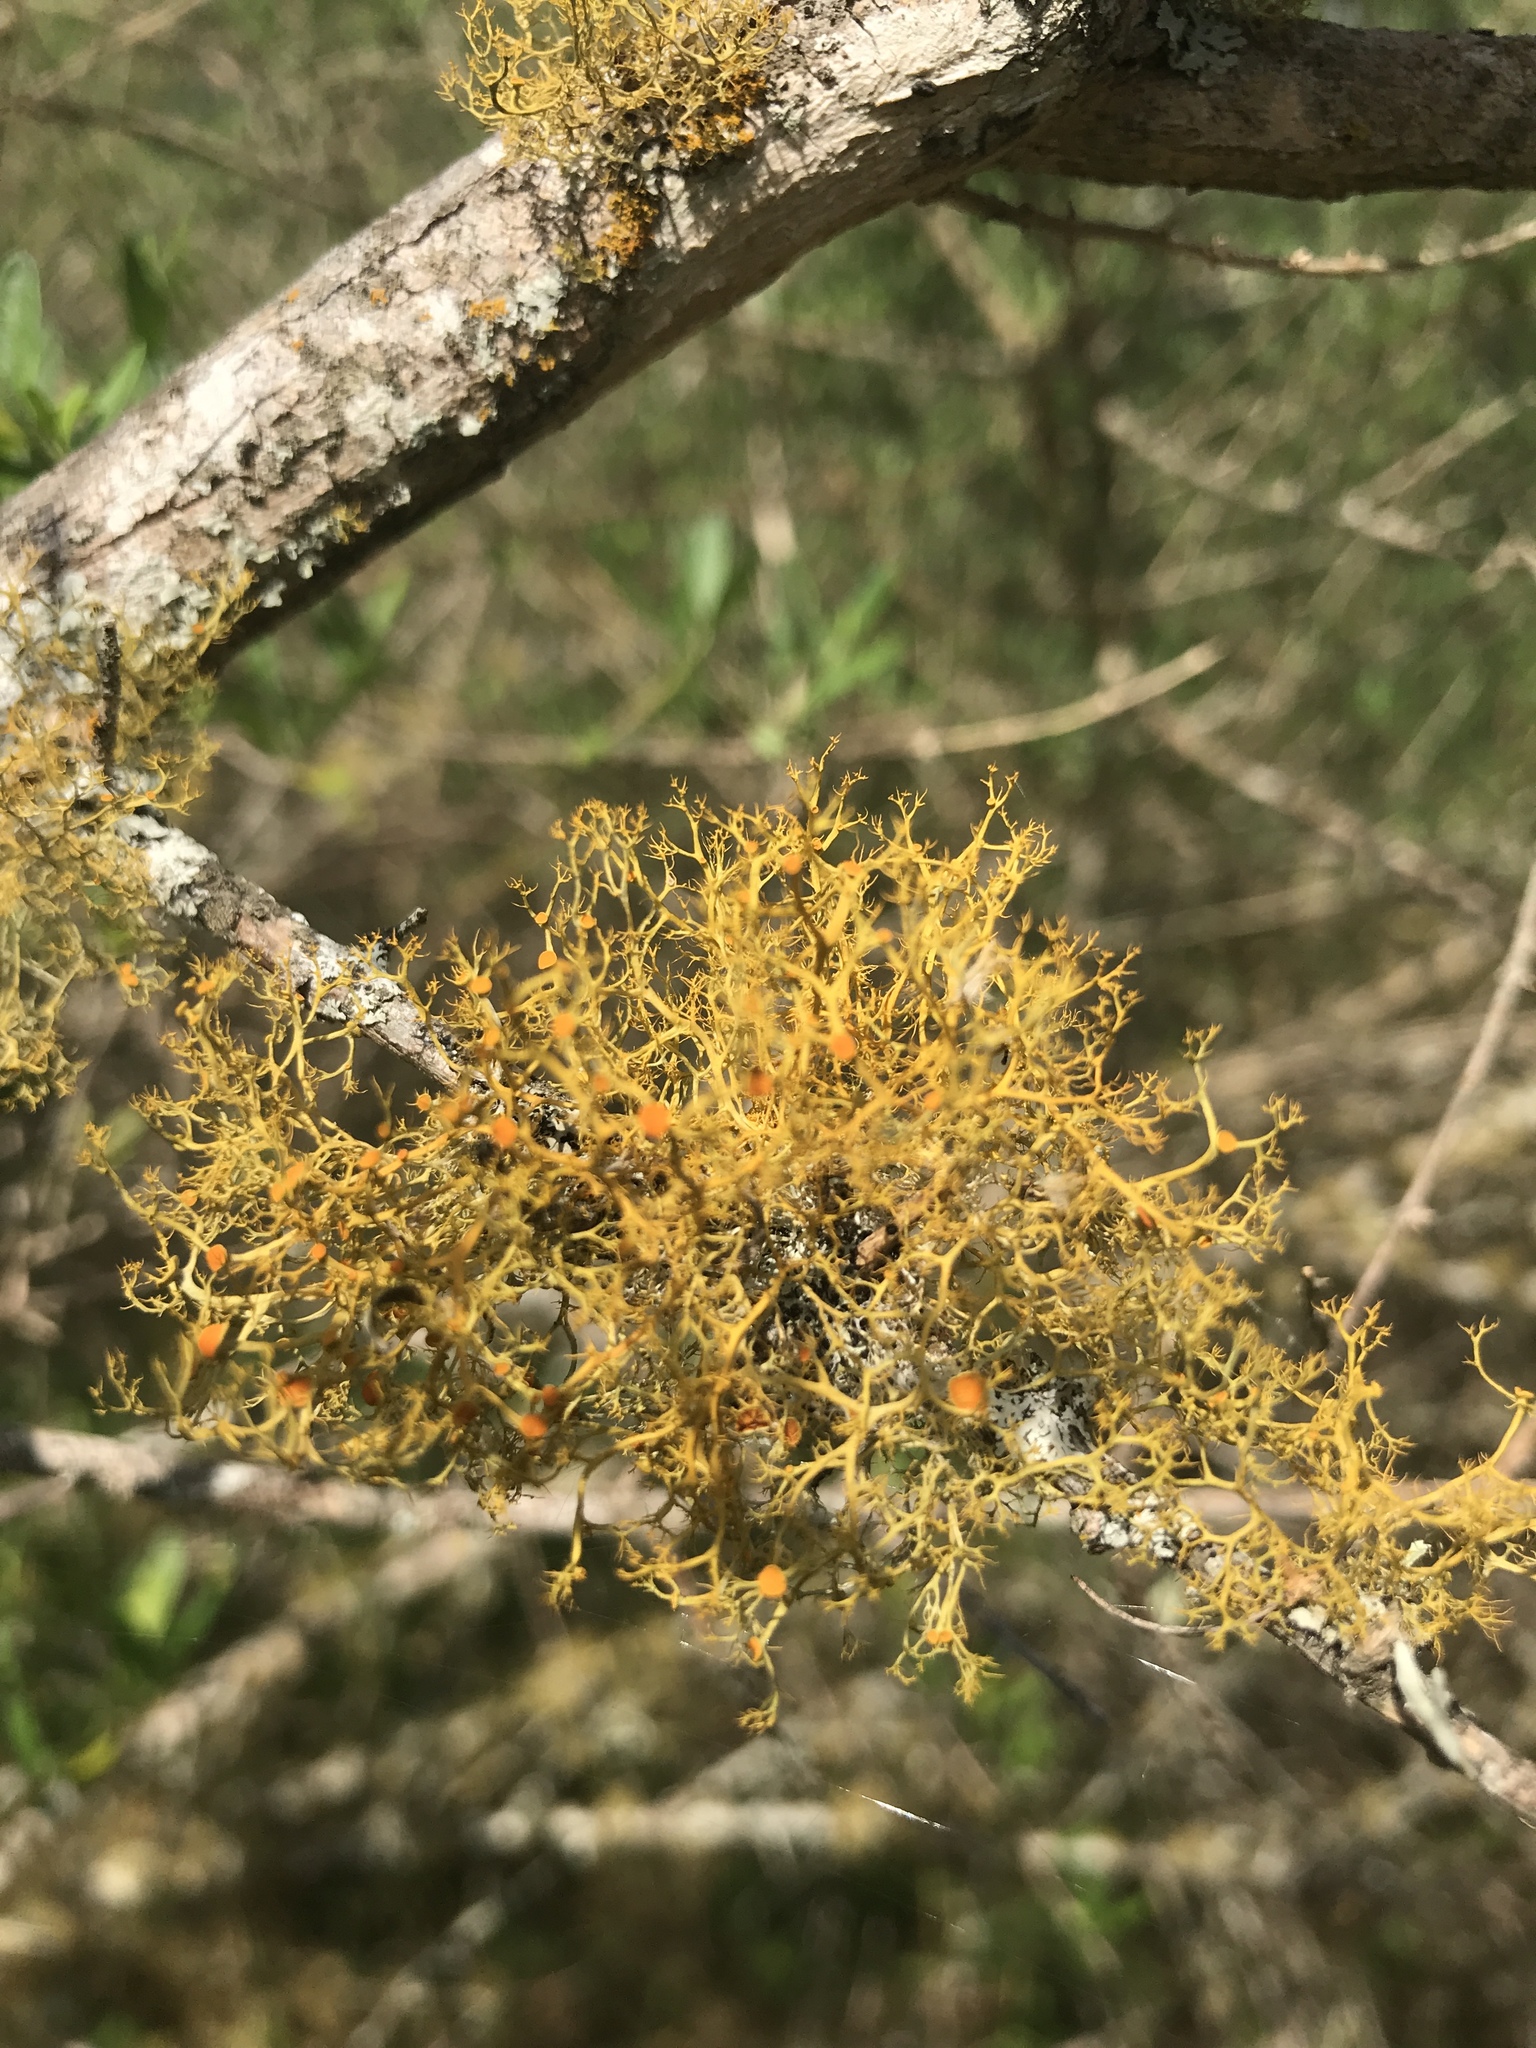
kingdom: Fungi
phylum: Ascomycota
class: Lecanoromycetes
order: Teloschistales
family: Teloschistaceae
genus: Teloschistes
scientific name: Teloschistes exilis
